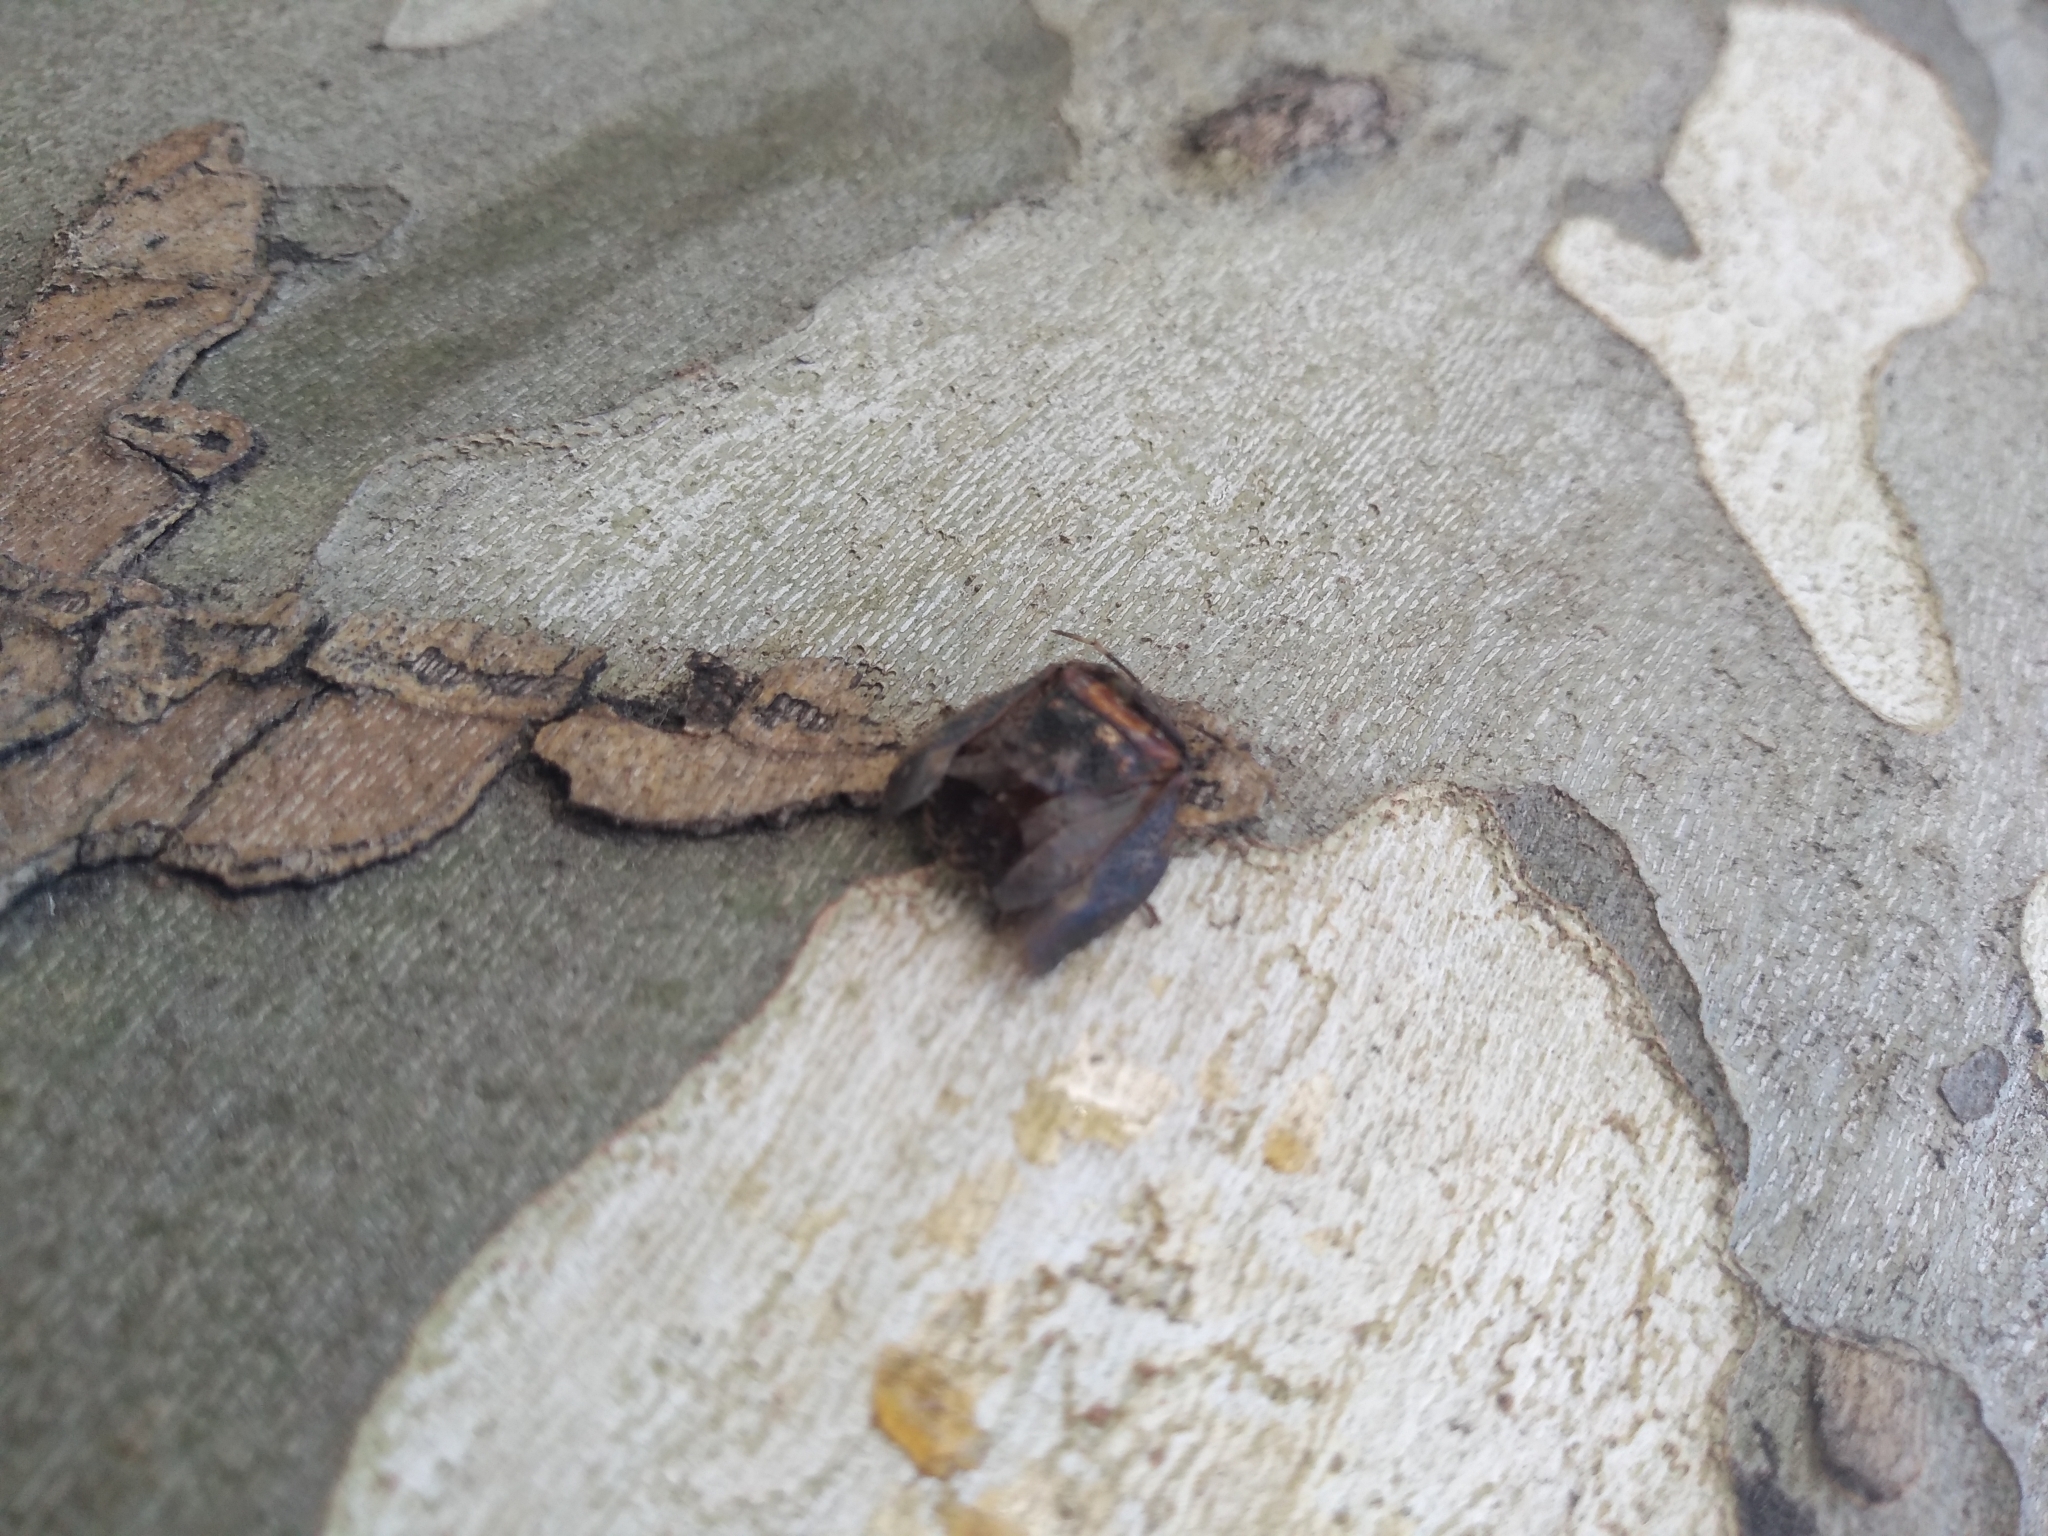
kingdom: Animalia
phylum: Arthropoda
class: Insecta
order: Hemiptera
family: Pentatomidae
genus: Antiteuchus
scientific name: Antiteuchus mixtus
